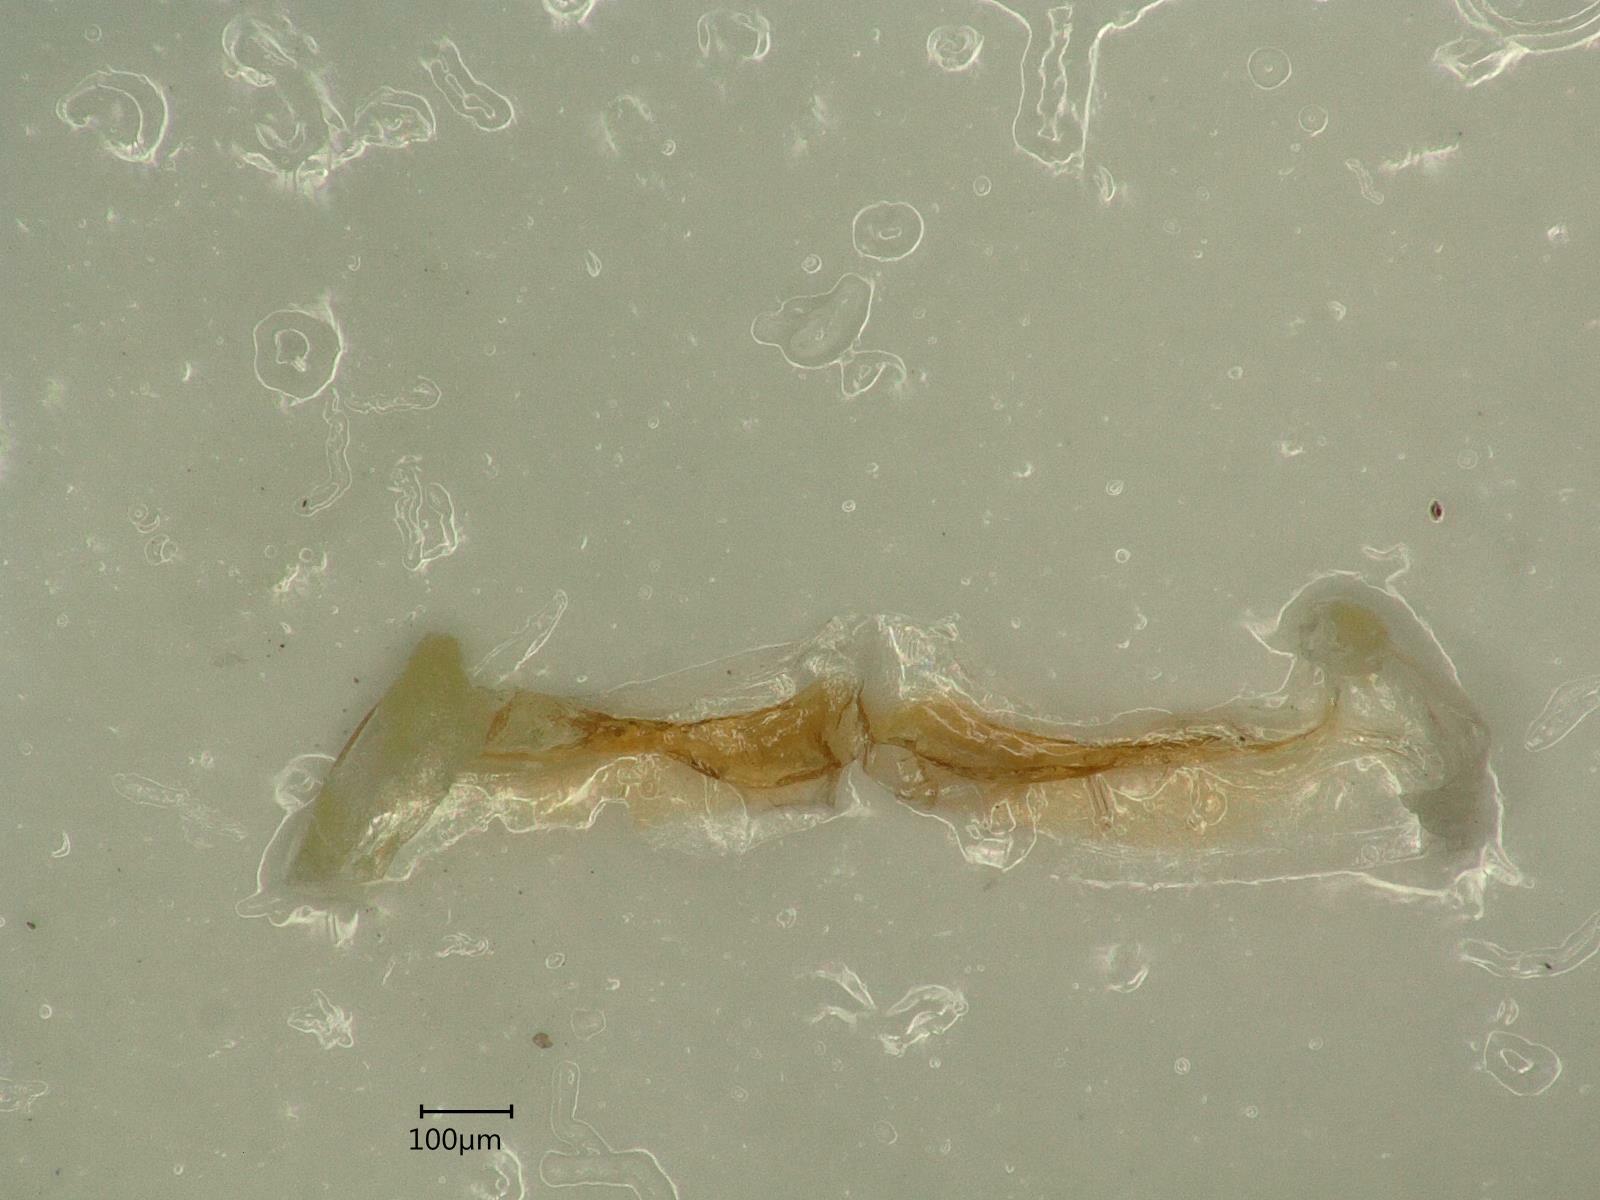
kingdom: Animalia
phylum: Arthropoda
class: Insecta
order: Hemiptera
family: Cicadellidae
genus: Kybos
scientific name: Kybos calyculus
